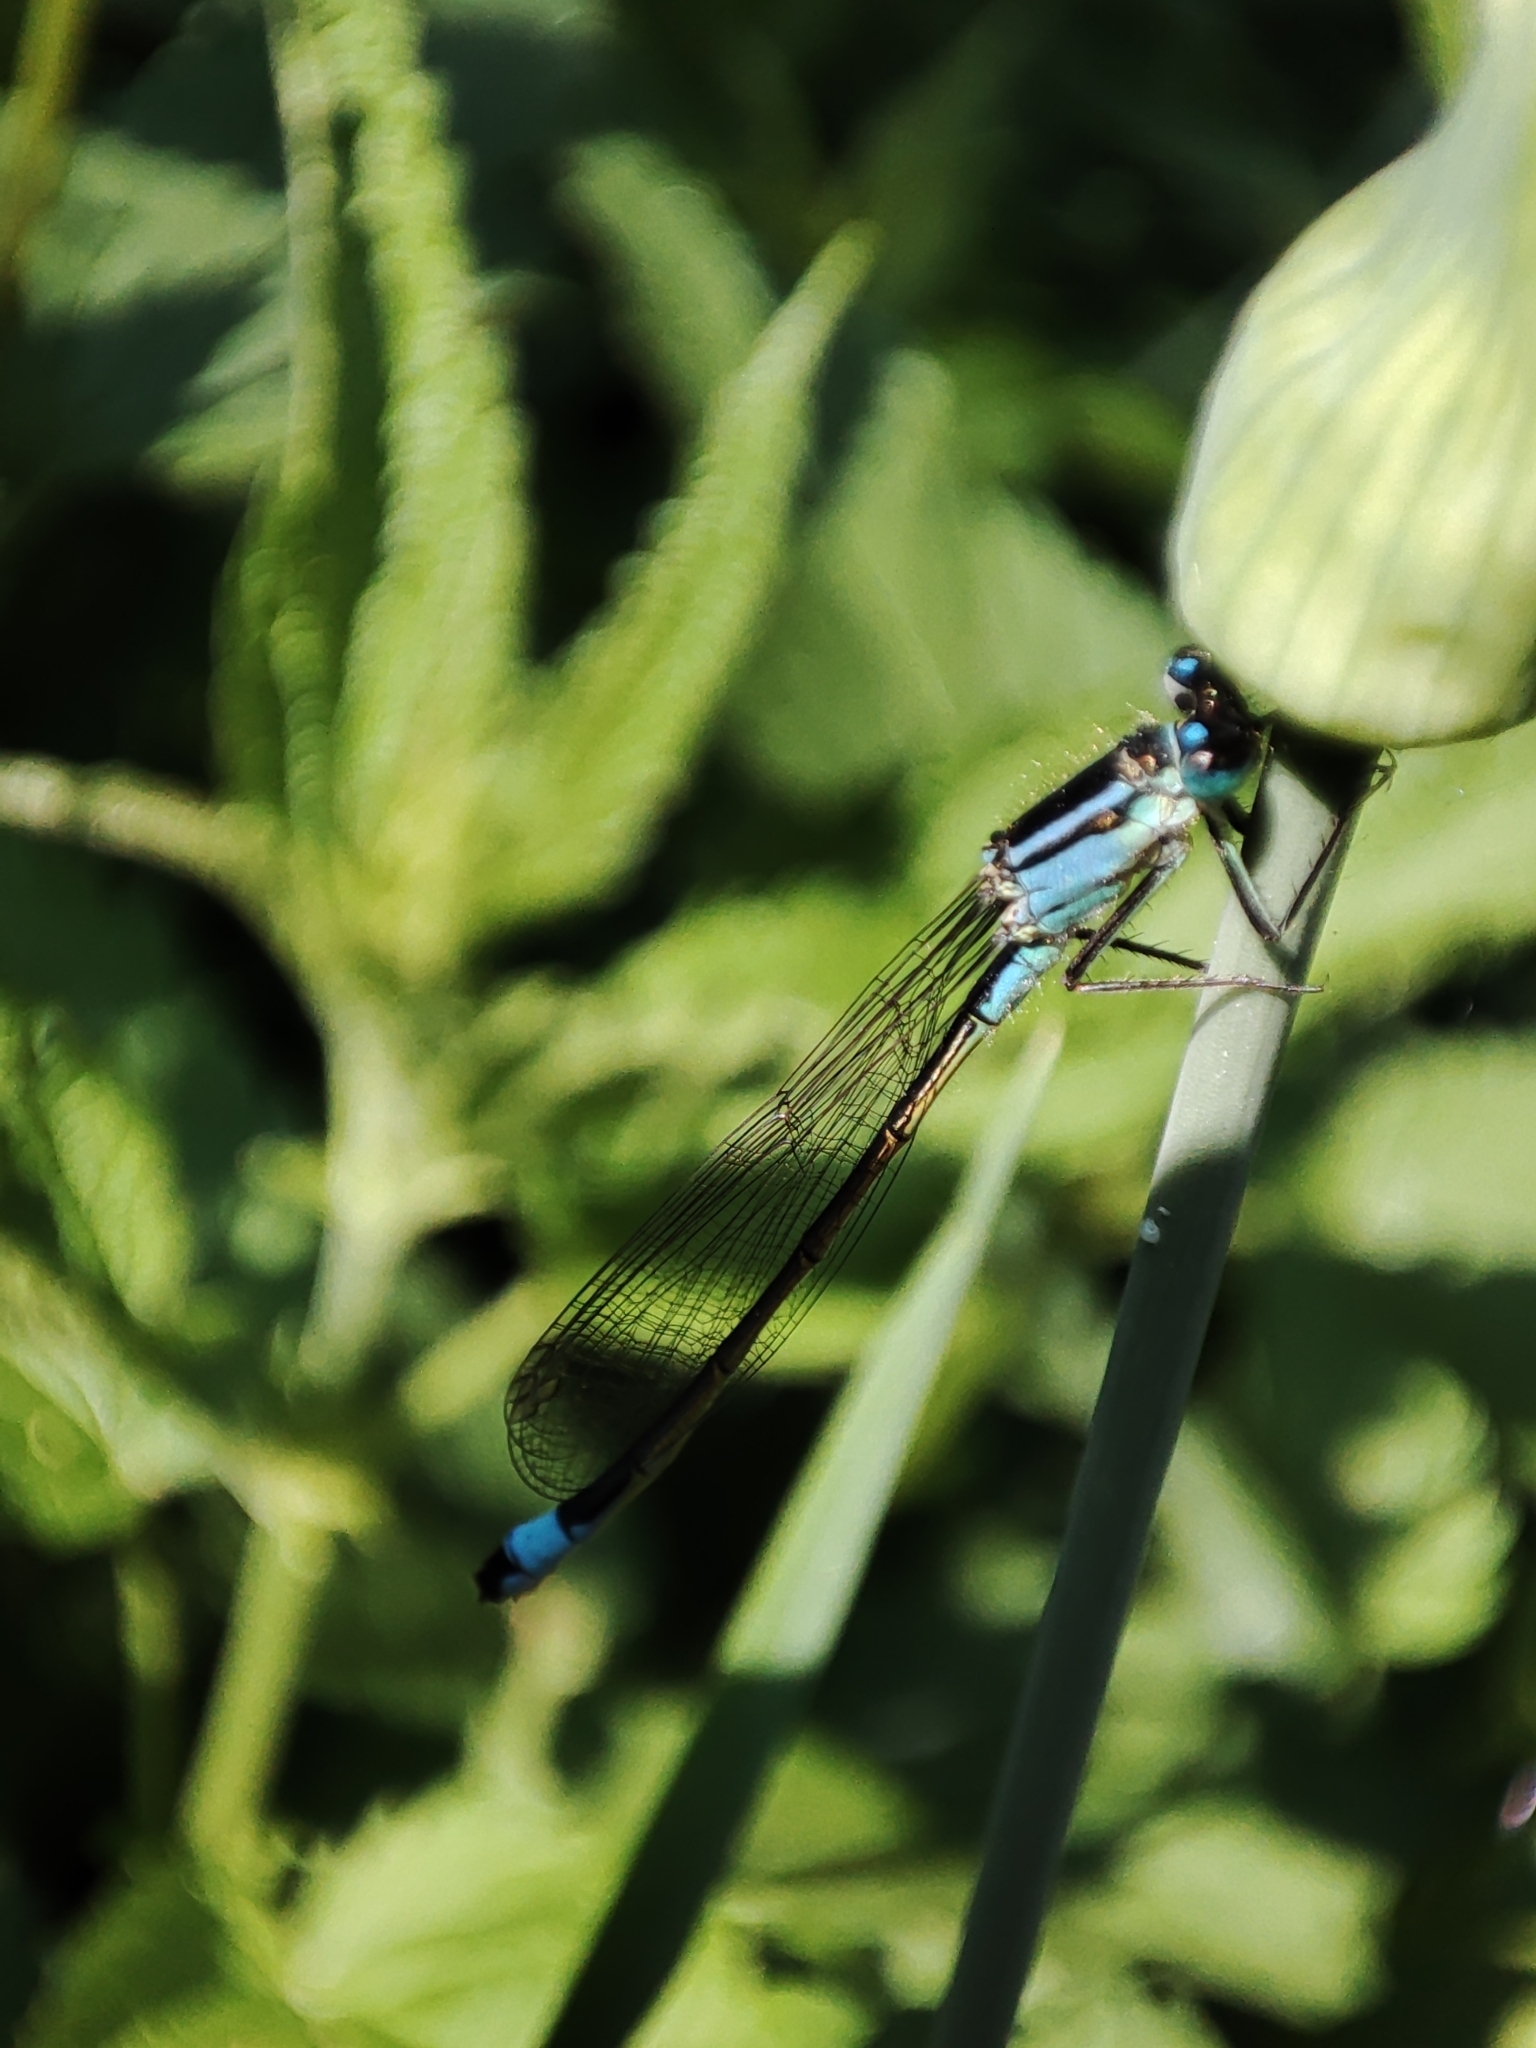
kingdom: Animalia
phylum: Arthropoda
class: Insecta
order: Odonata
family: Coenagrionidae
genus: Ischnura
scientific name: Ischnura elegans
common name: Blue-tailed damselfly
